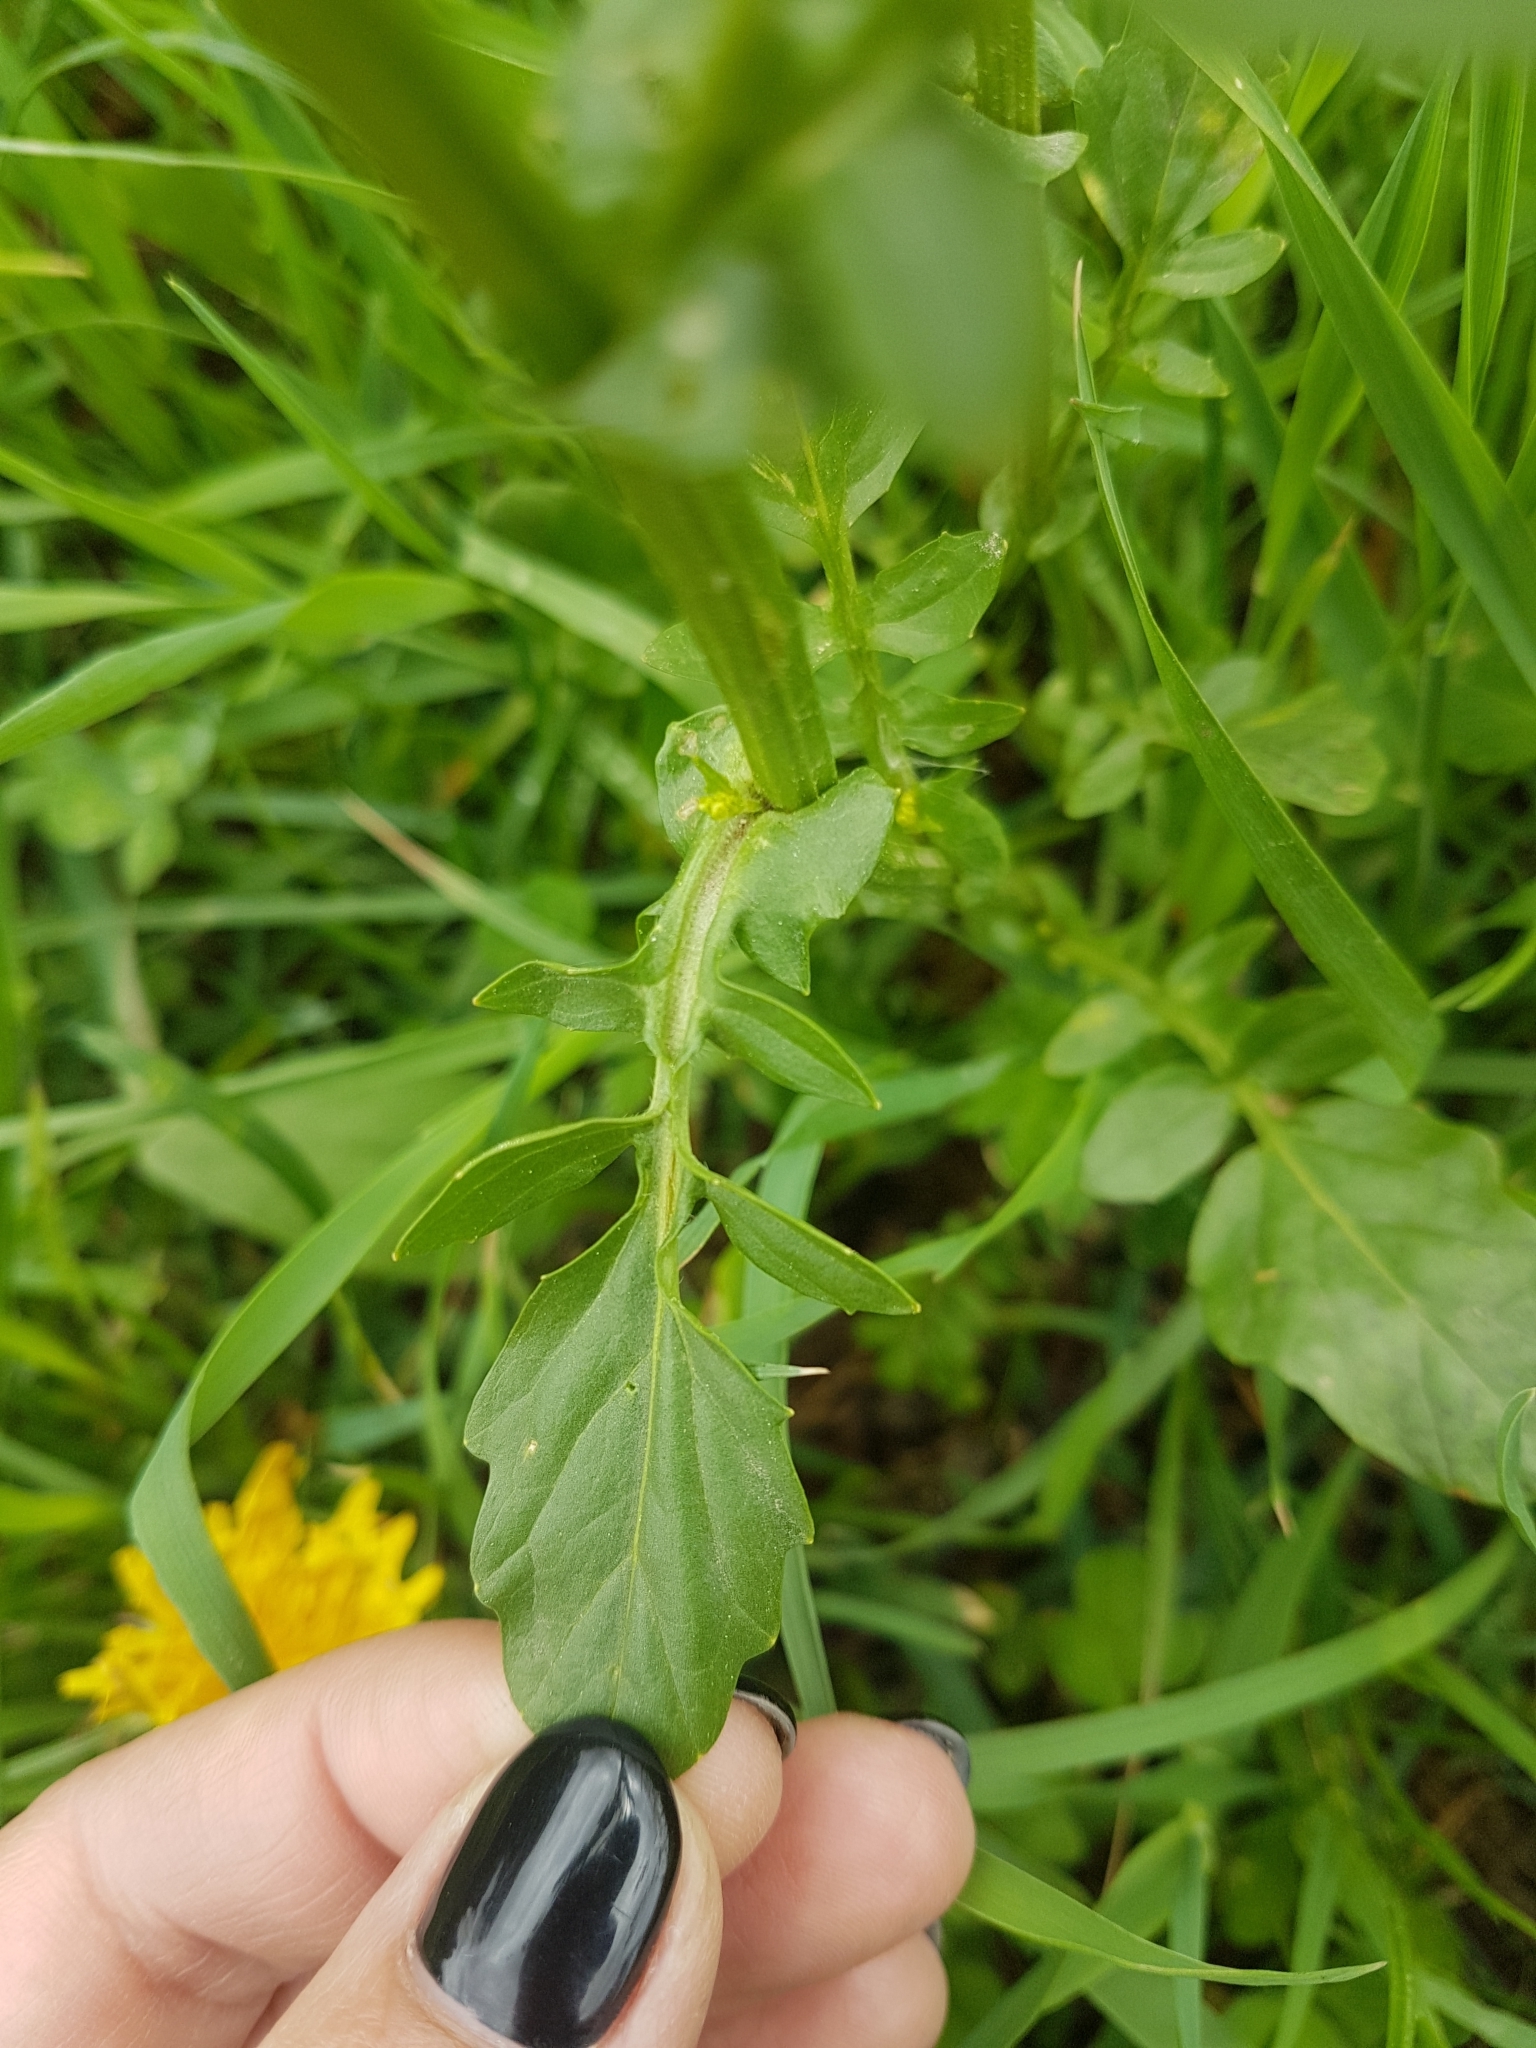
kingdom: Plantae
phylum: Tracheophyta
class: Magnoliopsida
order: Brassicales
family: Brassicaceae
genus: Barbarea
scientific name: Barbarea vulgaris
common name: Cressy-greens
